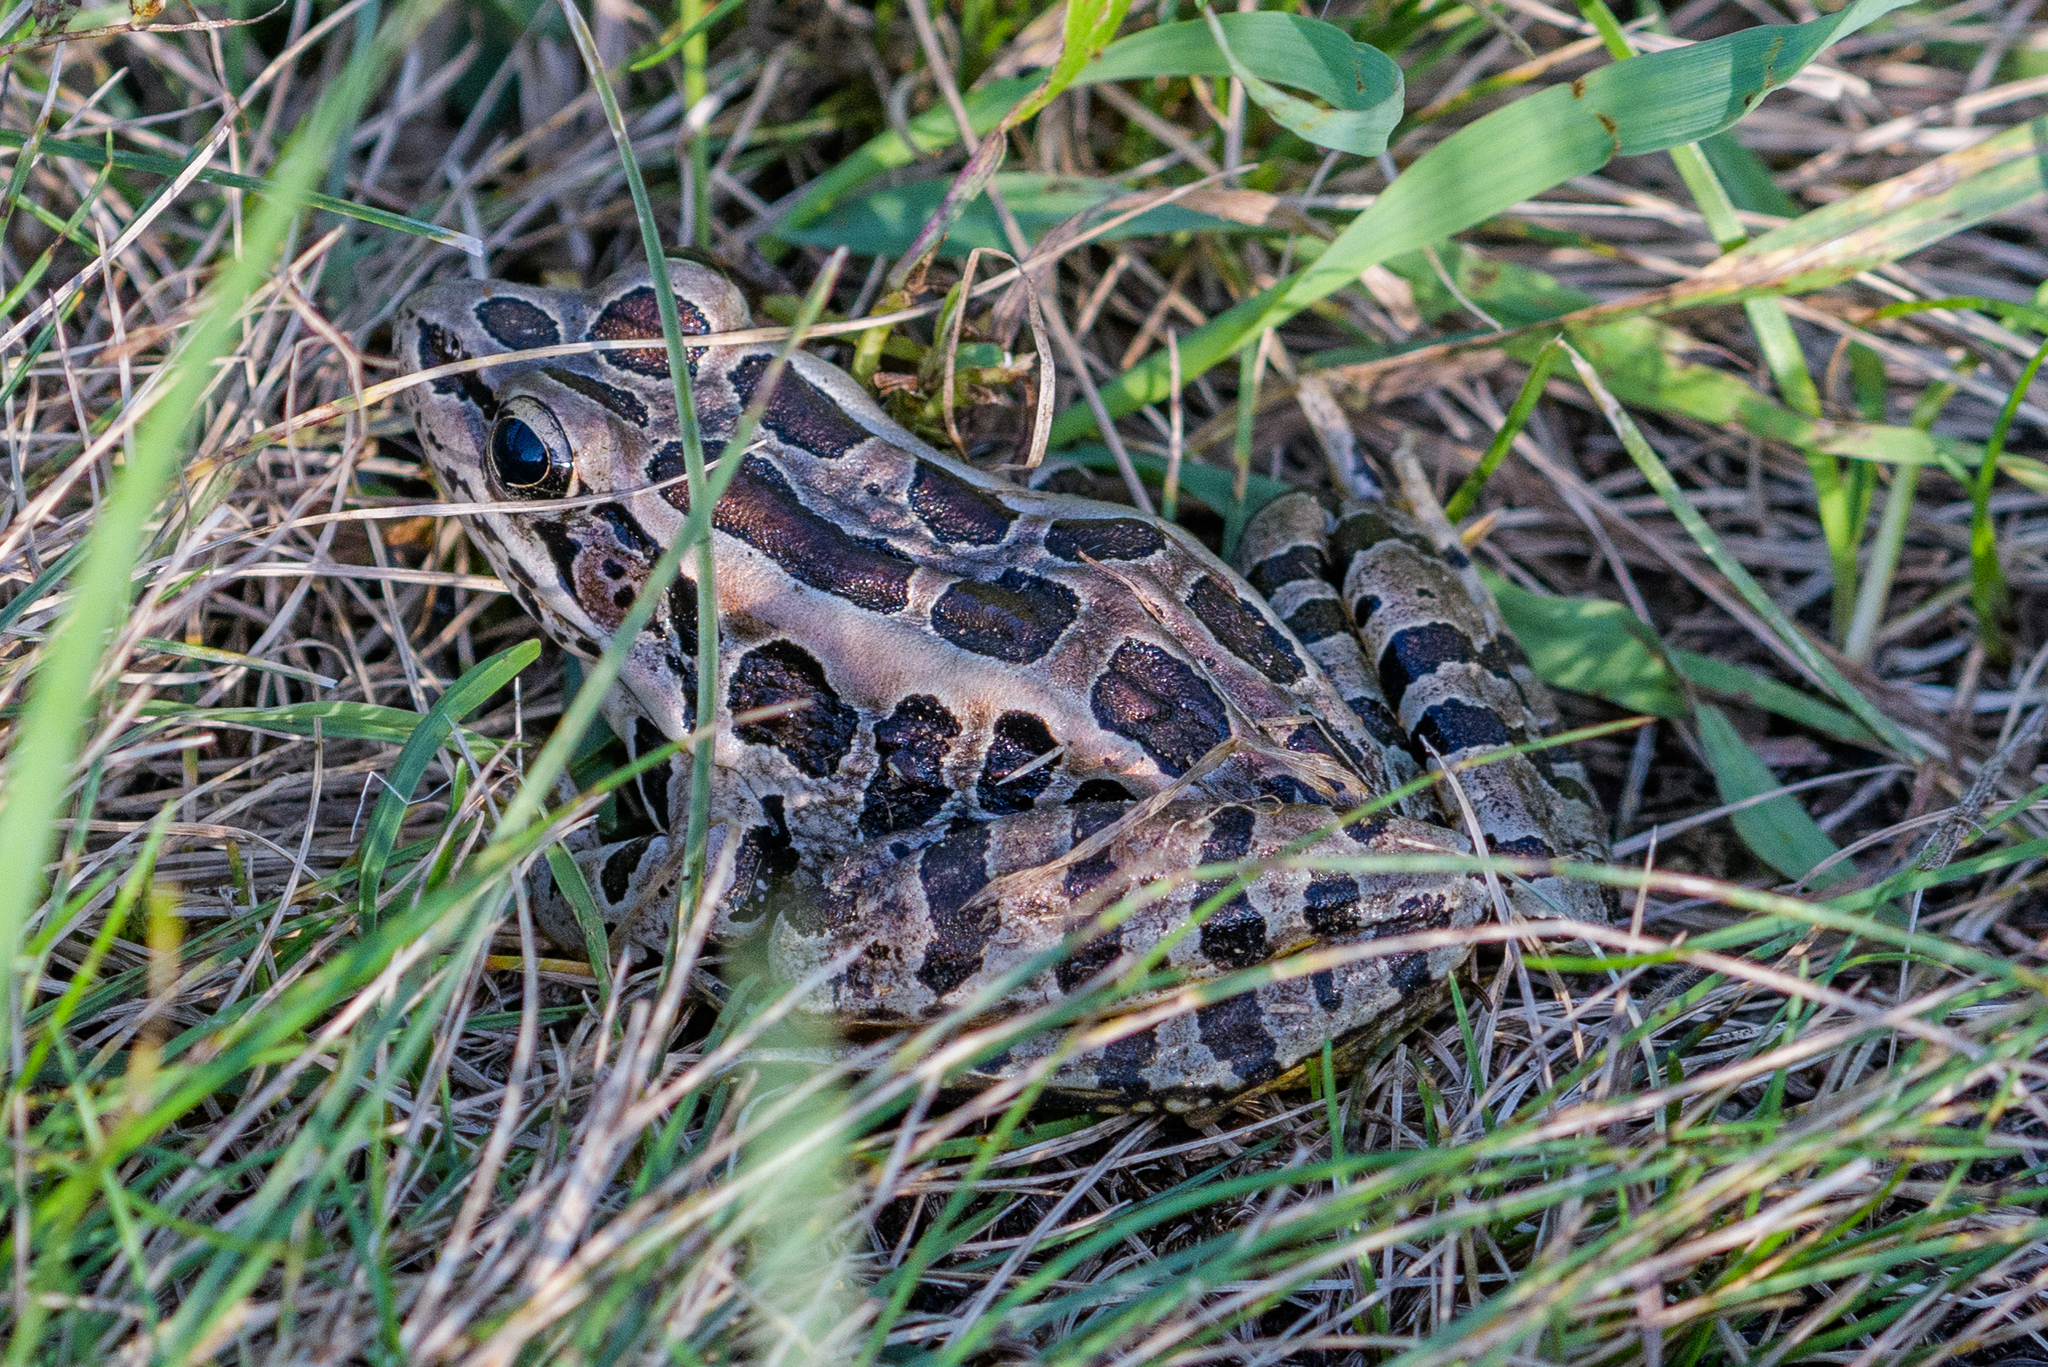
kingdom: Animalia
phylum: Chordata
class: Amphibia
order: Anura
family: Ranidae
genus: Lithobates
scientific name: Lithobates palustris
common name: Pickerel frog
